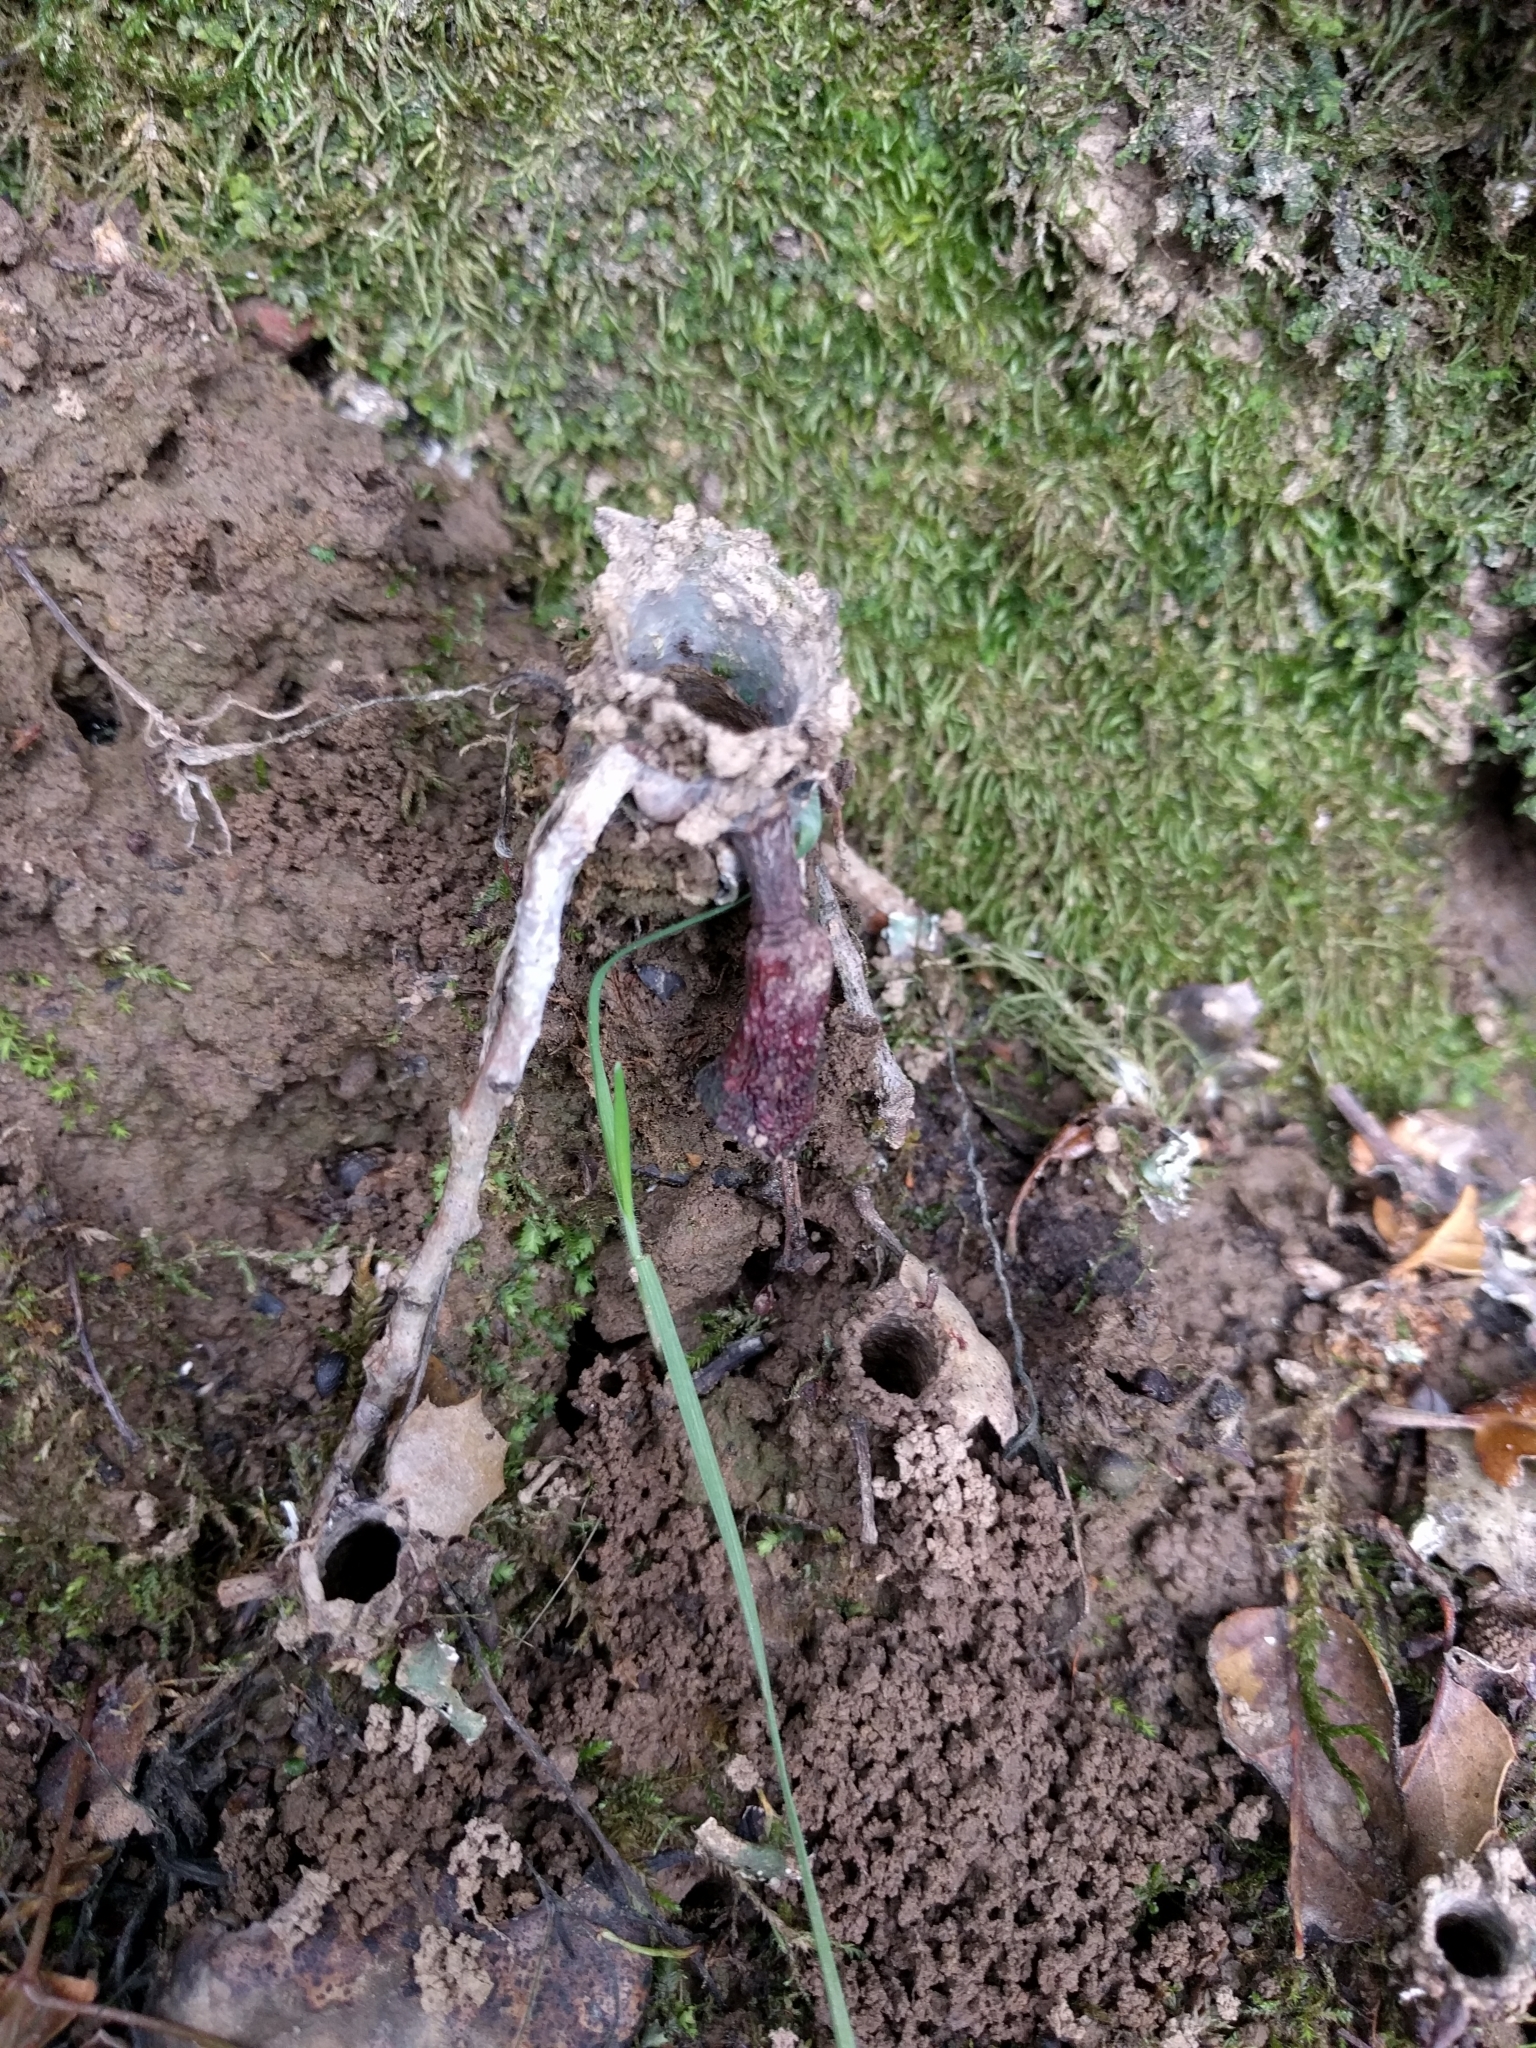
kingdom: Animalia
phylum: Arthropoda
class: Arachnida
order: Araneae
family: Antrodiaetidae
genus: Atypoides
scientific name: Atypoides riversi
